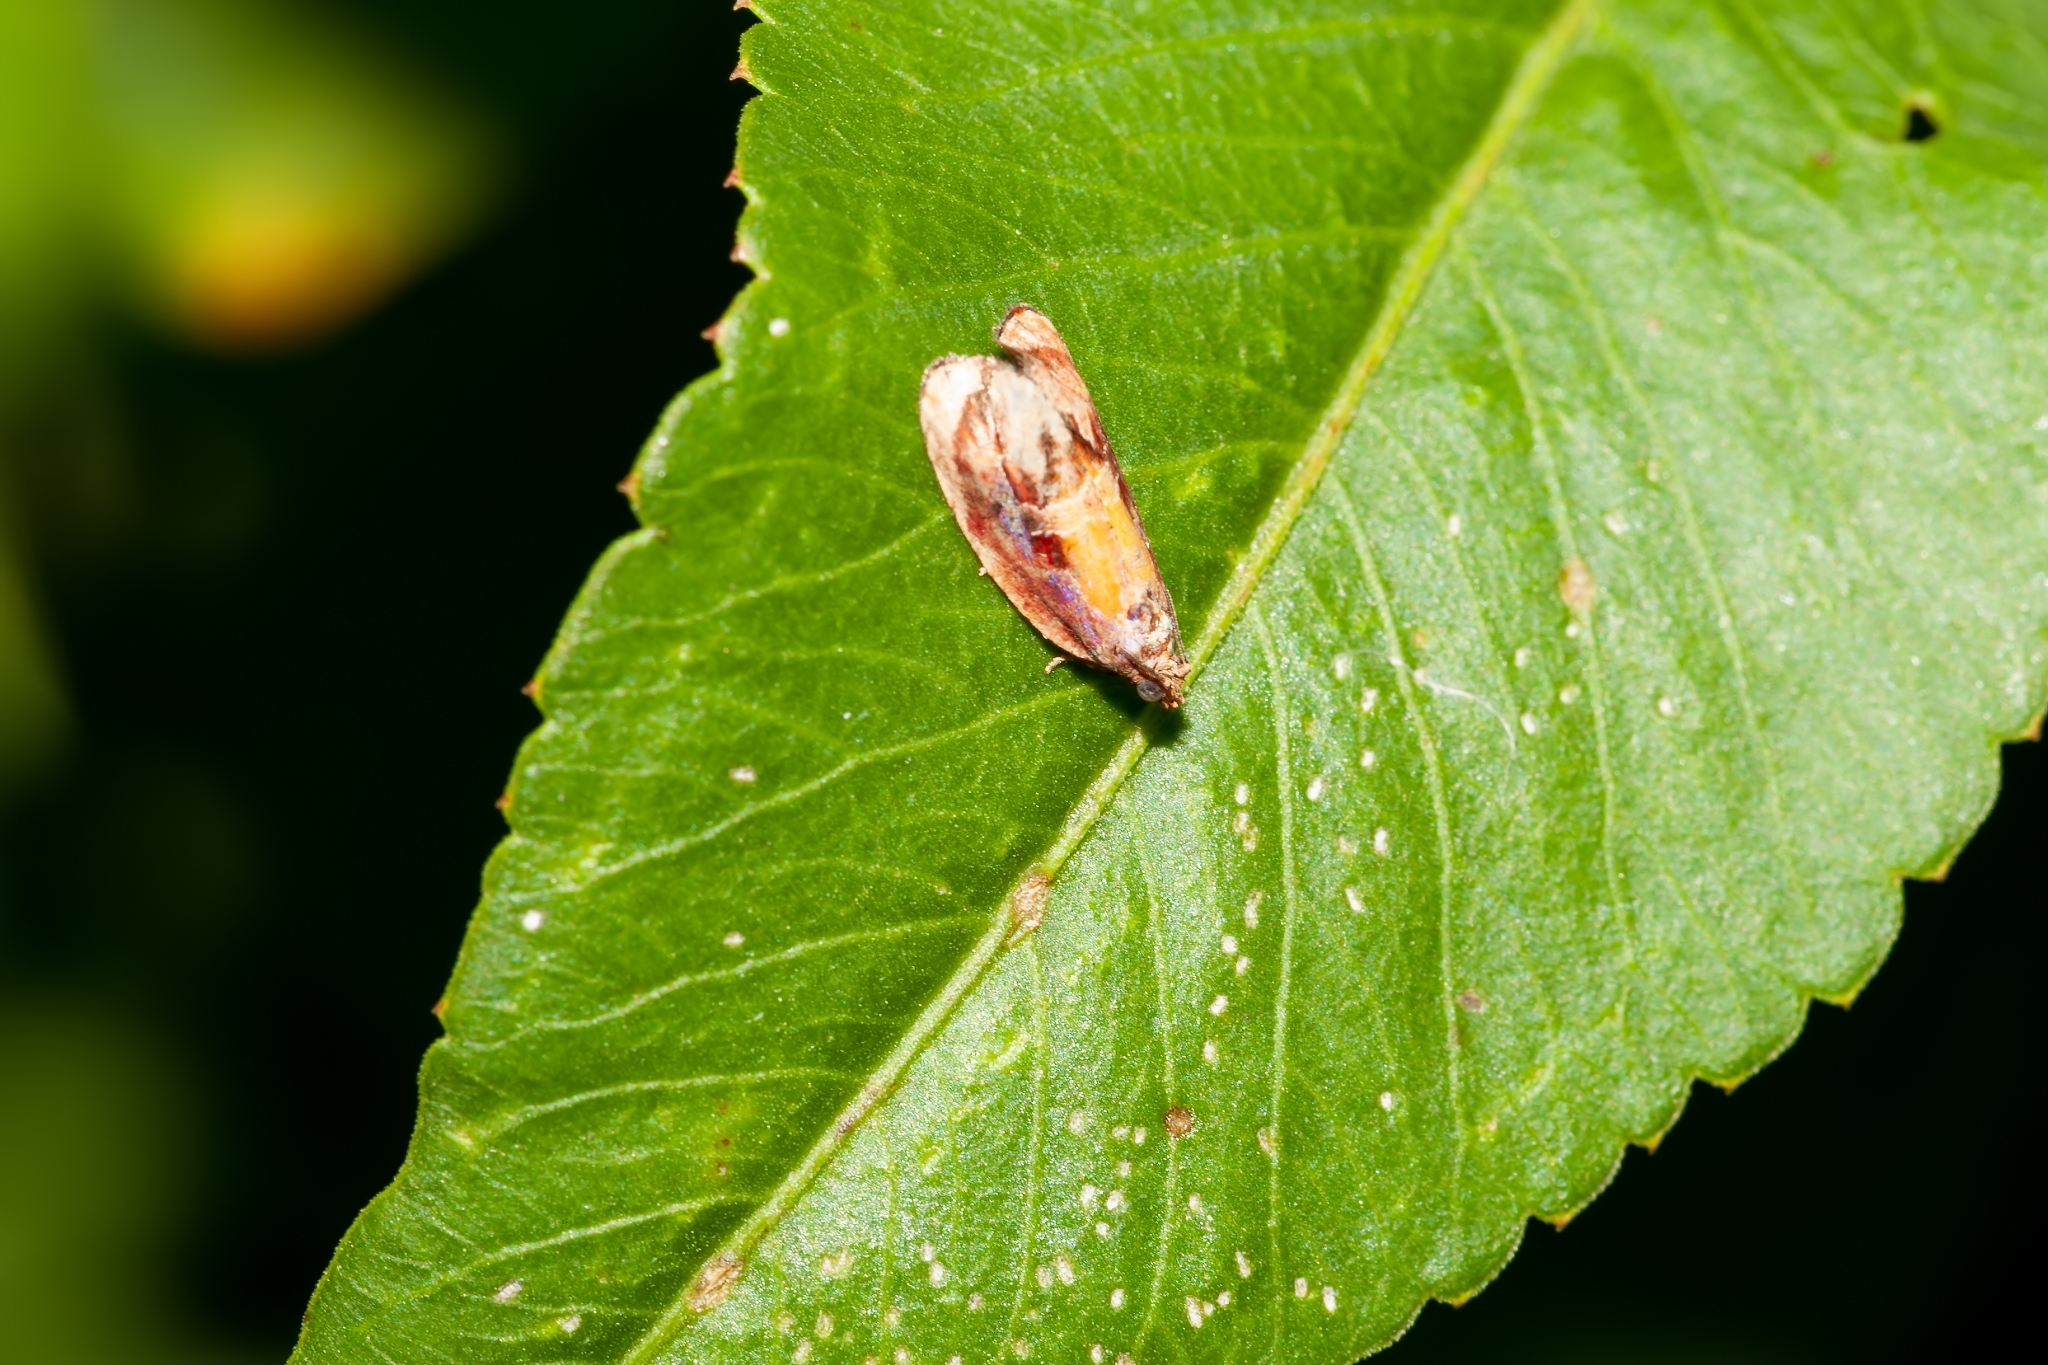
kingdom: Animalia
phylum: Arthropoda
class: Insecta
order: Lepidoptera
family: Tortricidae
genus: Zomaria
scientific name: Zomaria rosaochreana
